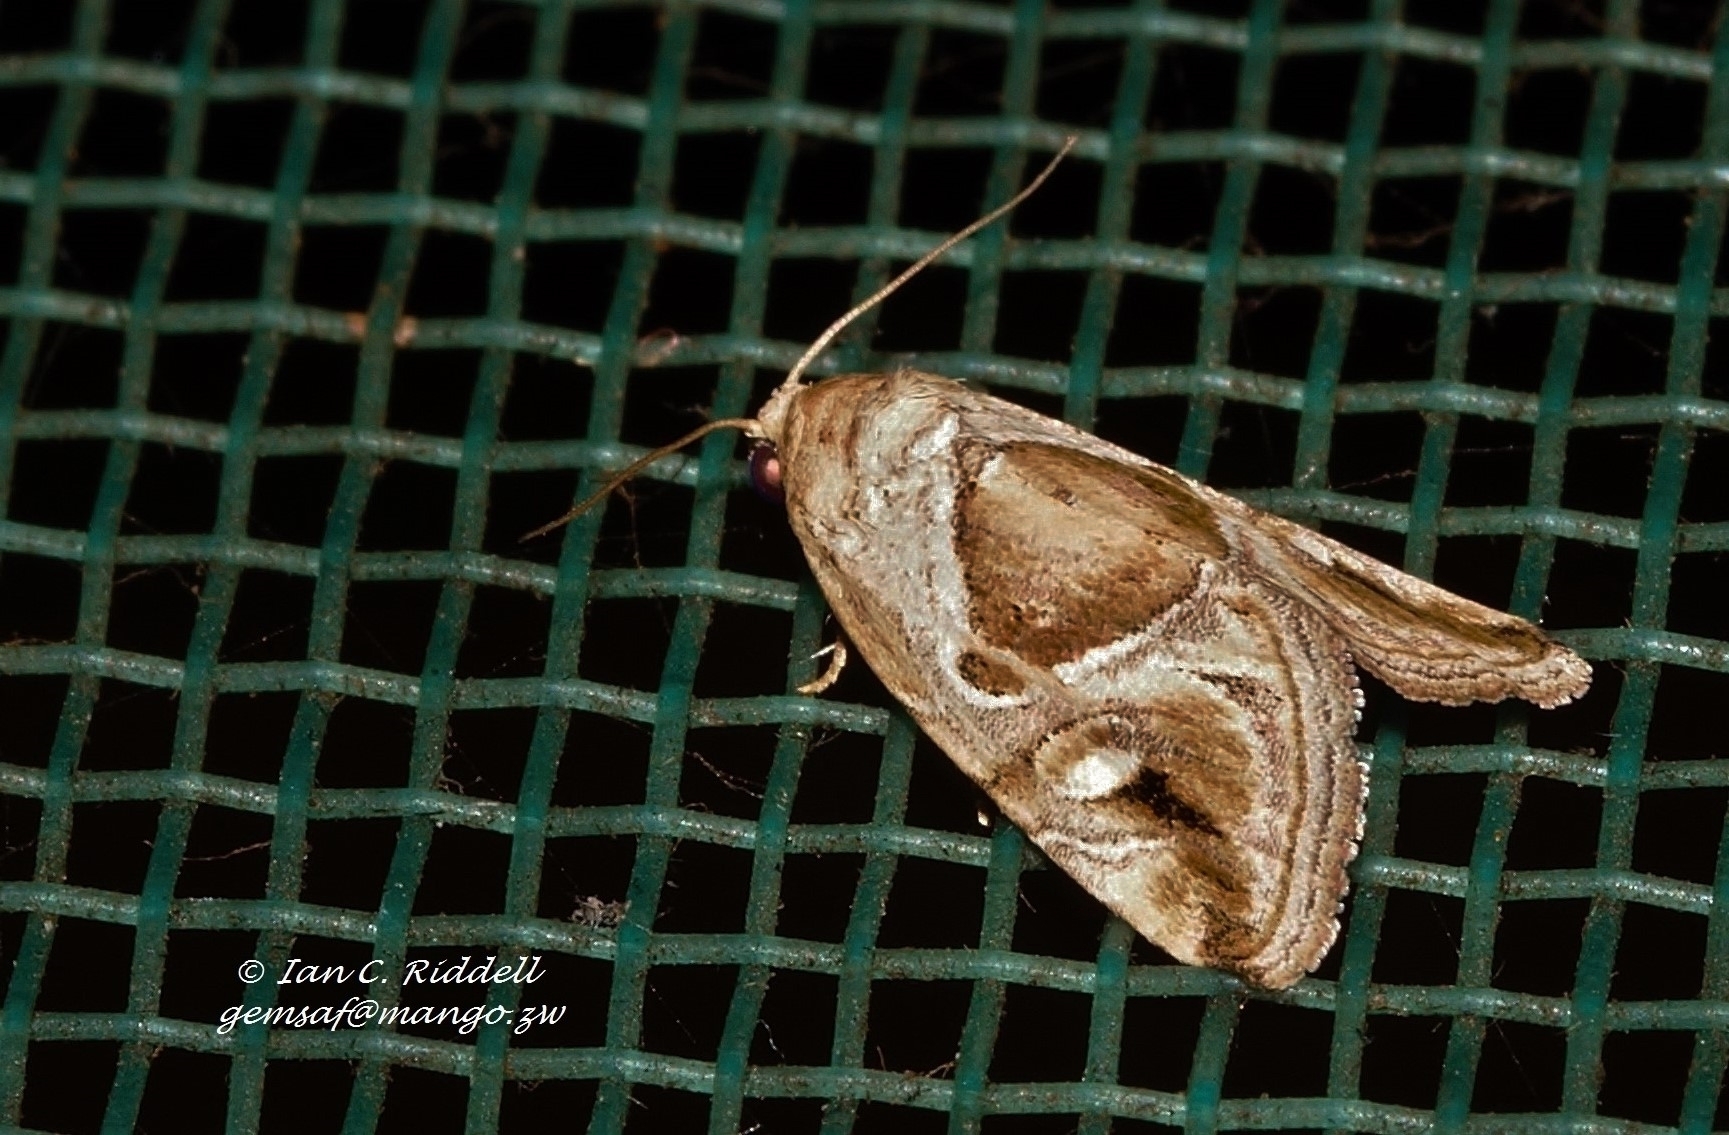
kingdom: Animalia
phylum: Arthropoda
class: Insecta
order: Lepidoptera
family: Noctuidae
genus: Deltote
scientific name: Deltote johnjoannoui
